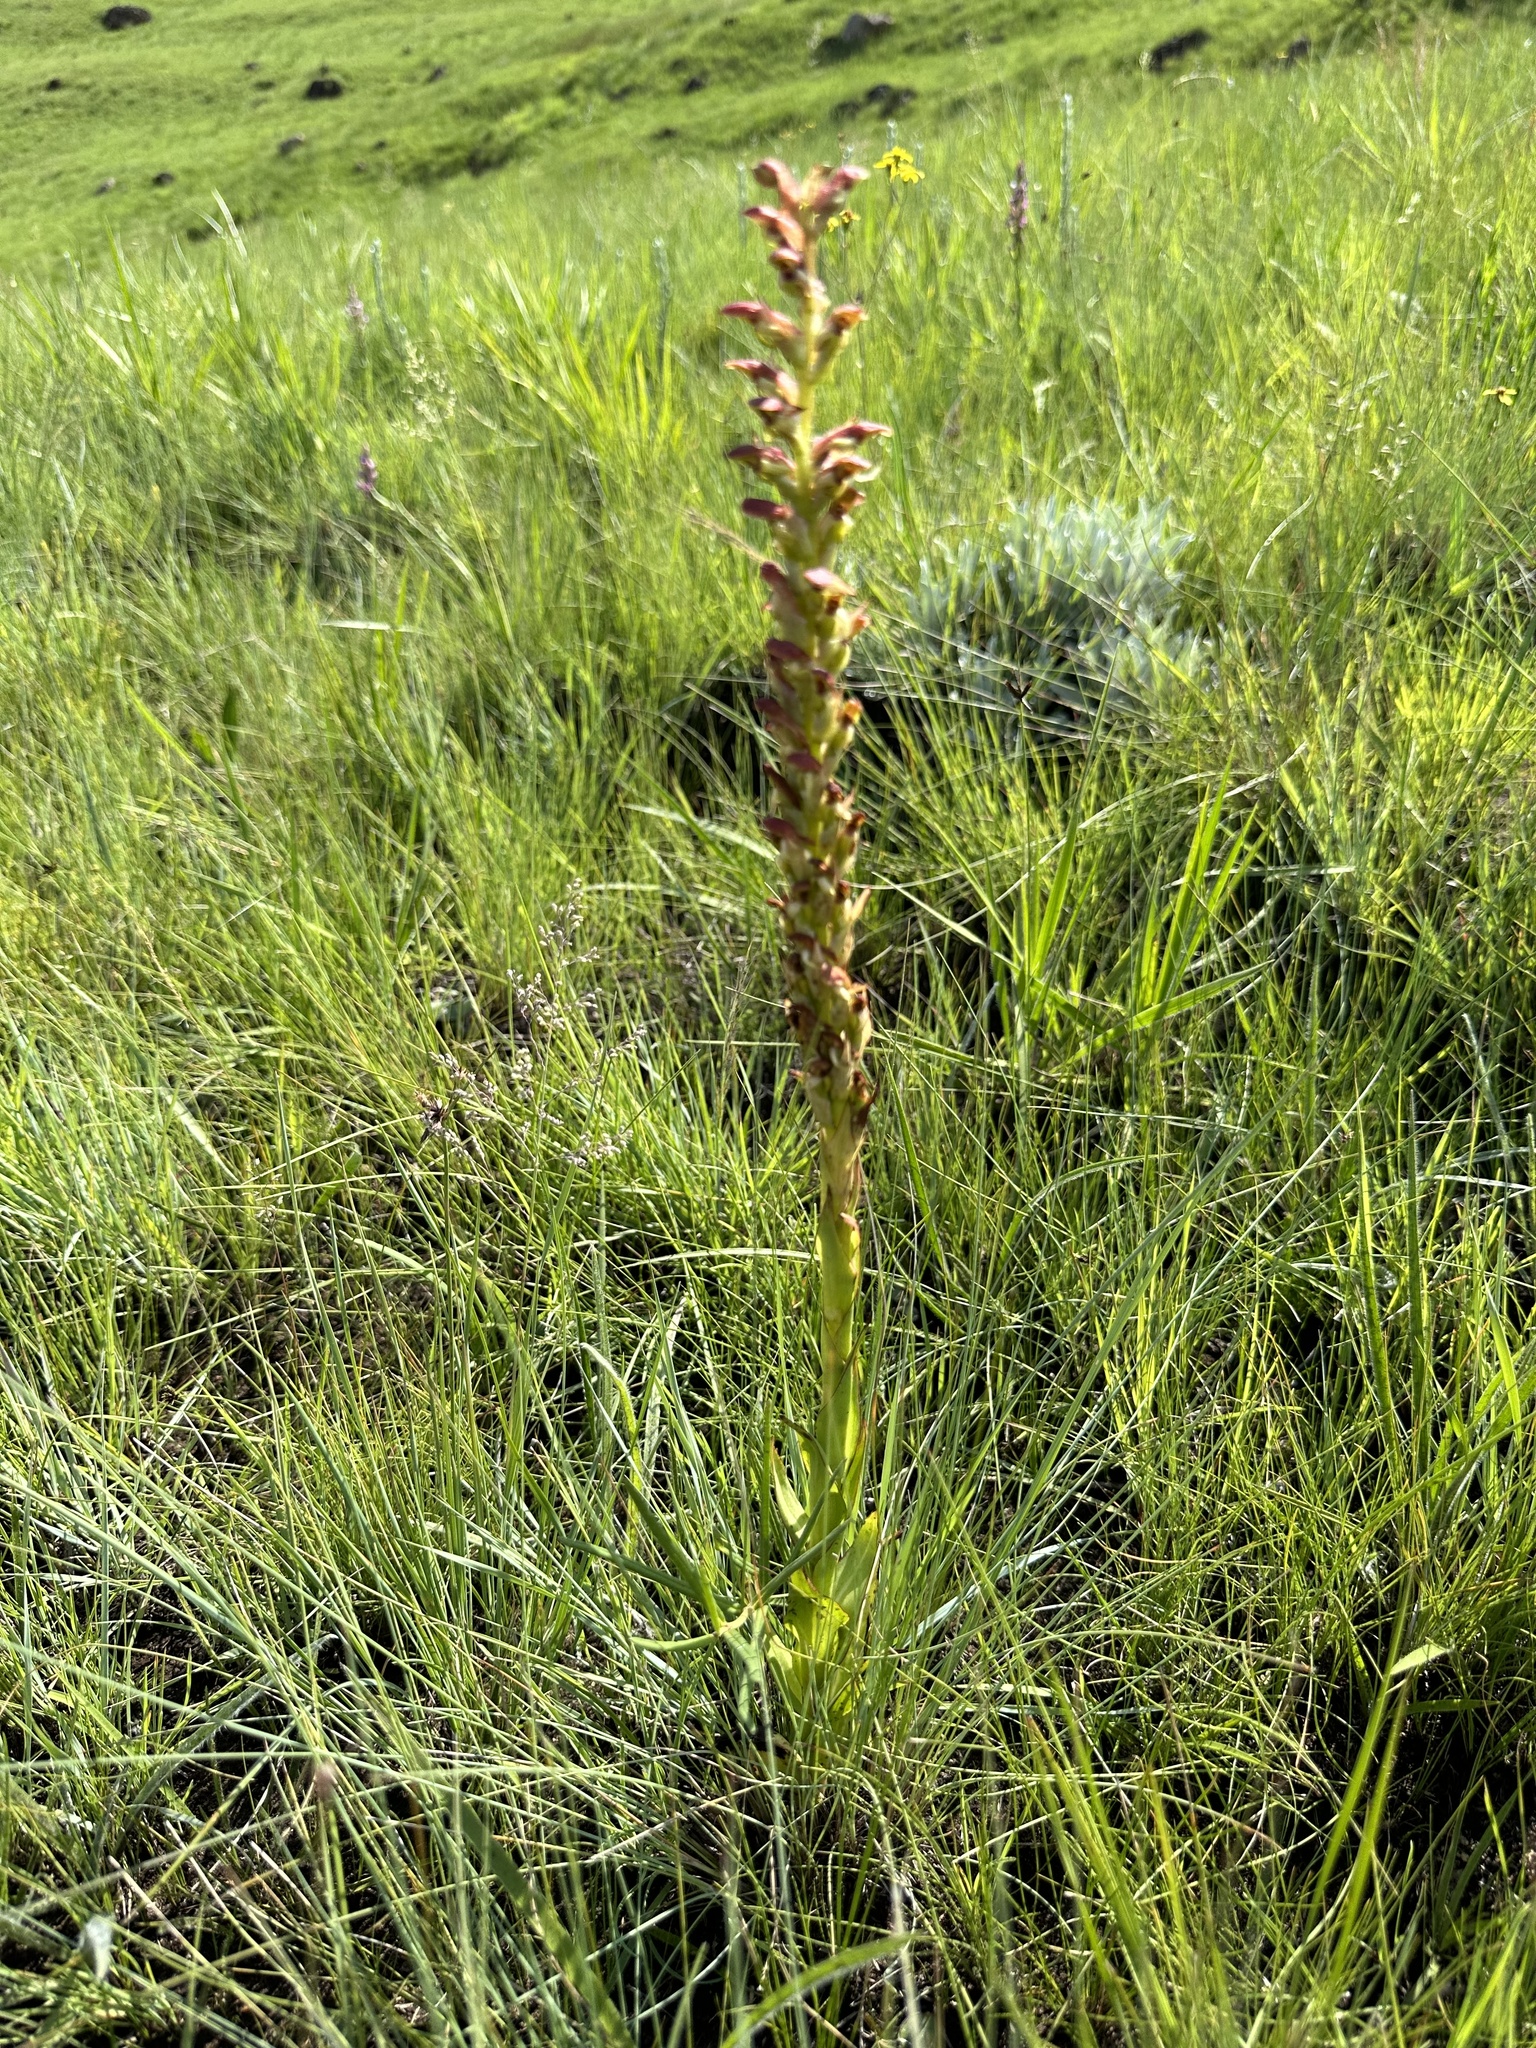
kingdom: Plantae
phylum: Tracheophyta
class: Liliopsida
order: Asparagales
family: Orchidaceae
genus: Disa
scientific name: Disa brevicornis
